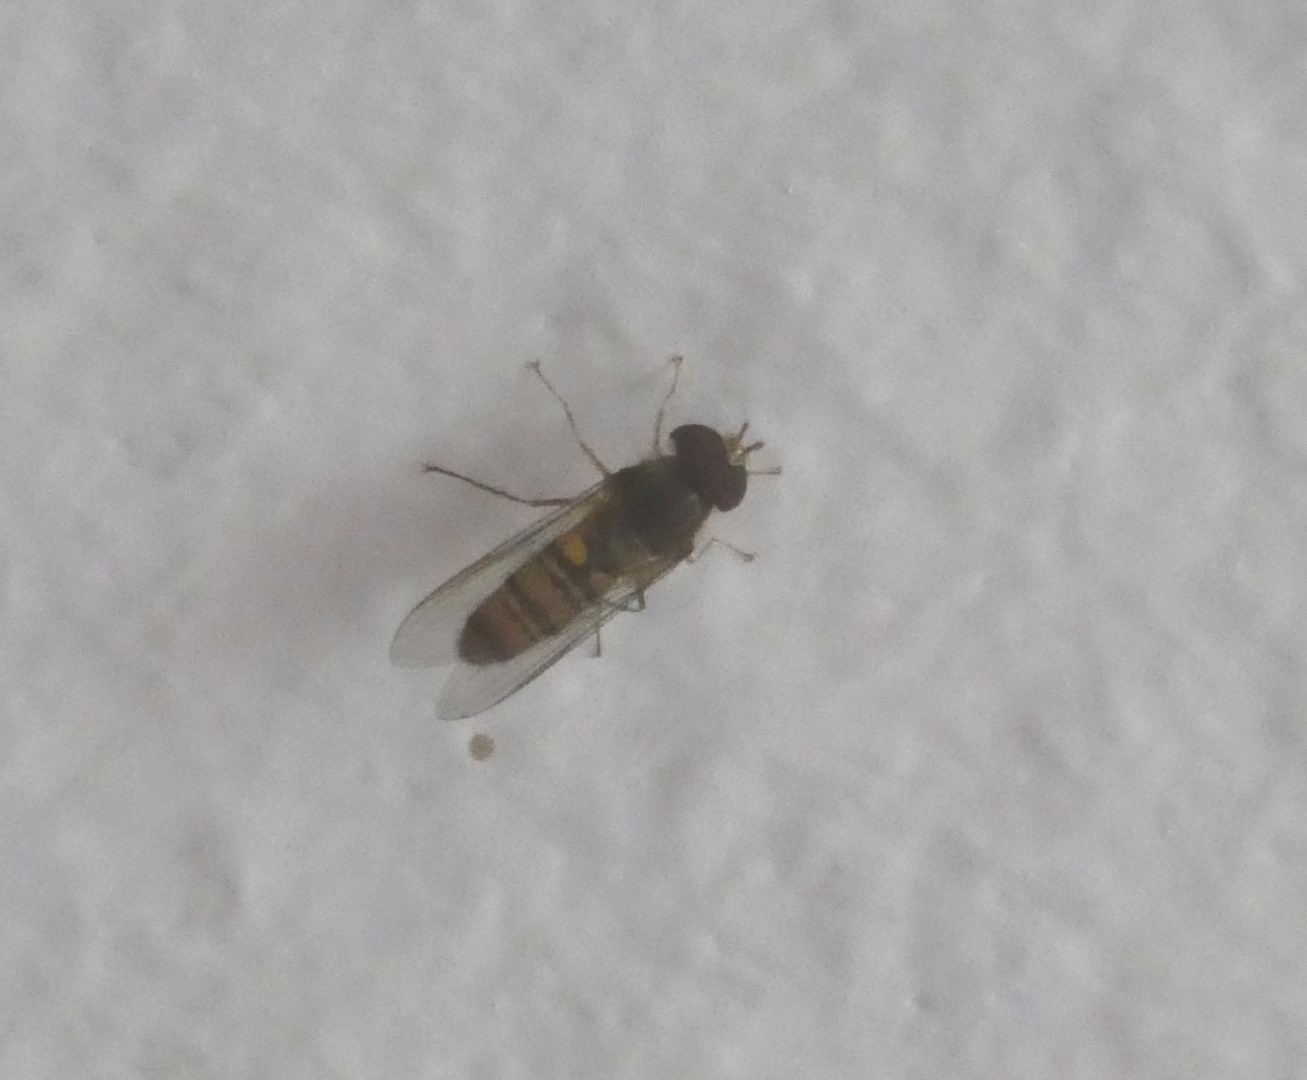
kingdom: Animalia
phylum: Arthropoda
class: Insecta
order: Diptera
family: Syrphidae
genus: Episyrphus
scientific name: Episyrphus balteatus
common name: Marmalade hoverfly
